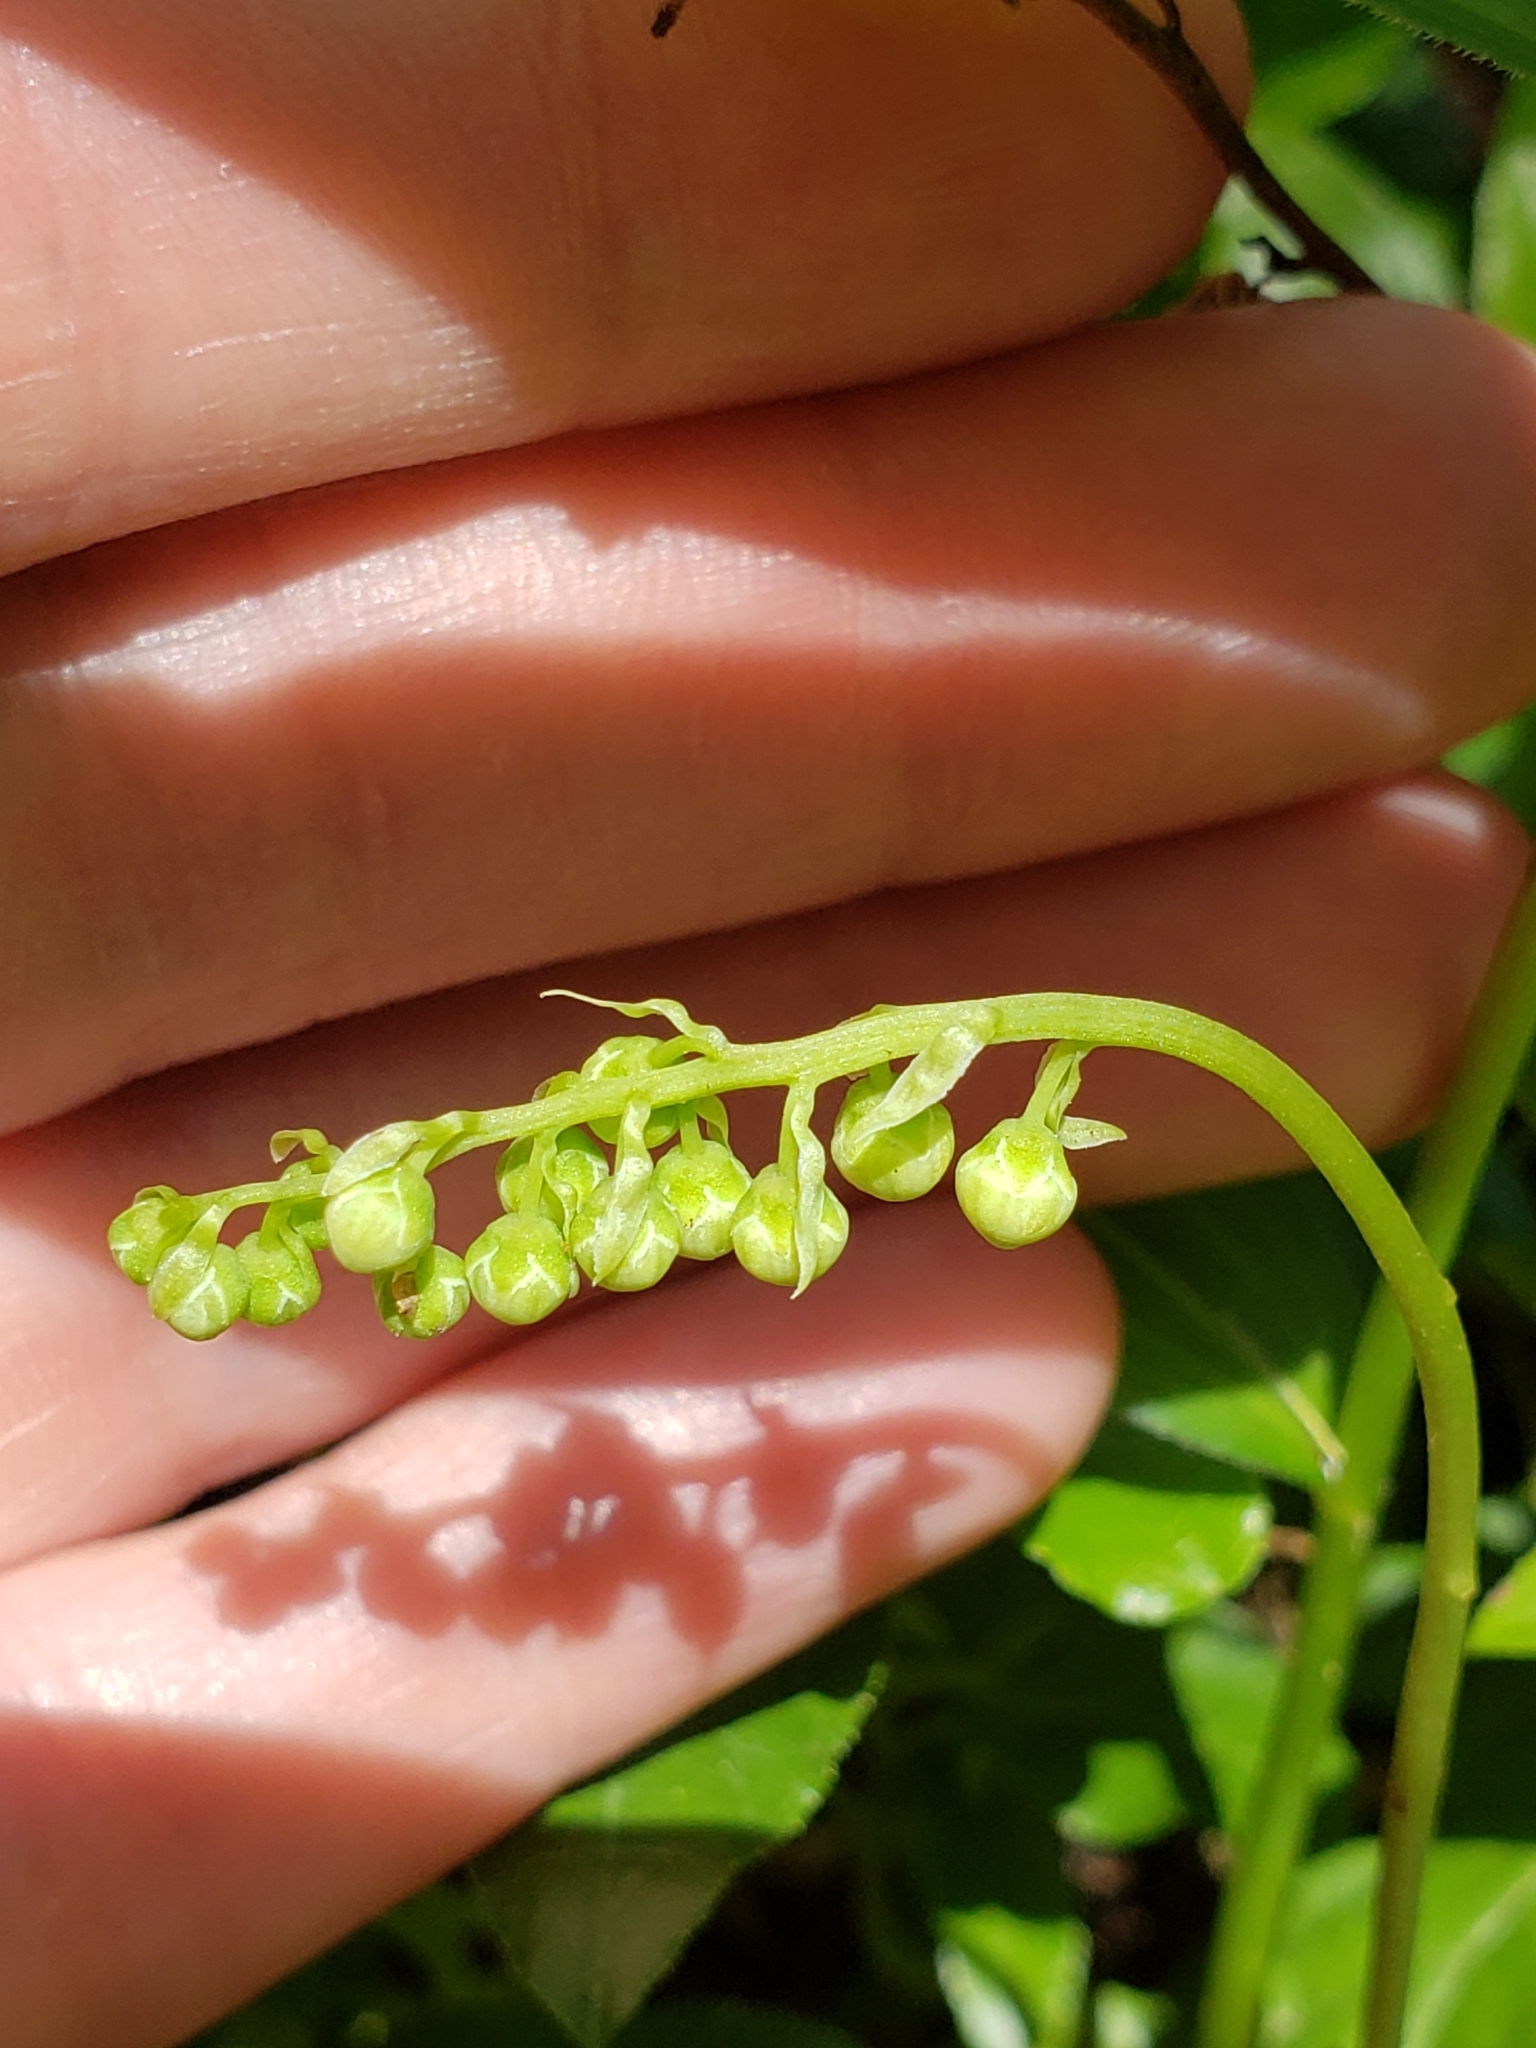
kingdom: Plantae
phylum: Tracheophyta
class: Magnoliopsida
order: Ericales
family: Ericaceae
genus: Orthilia
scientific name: Orthilia secunda
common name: One-sided orthilia
